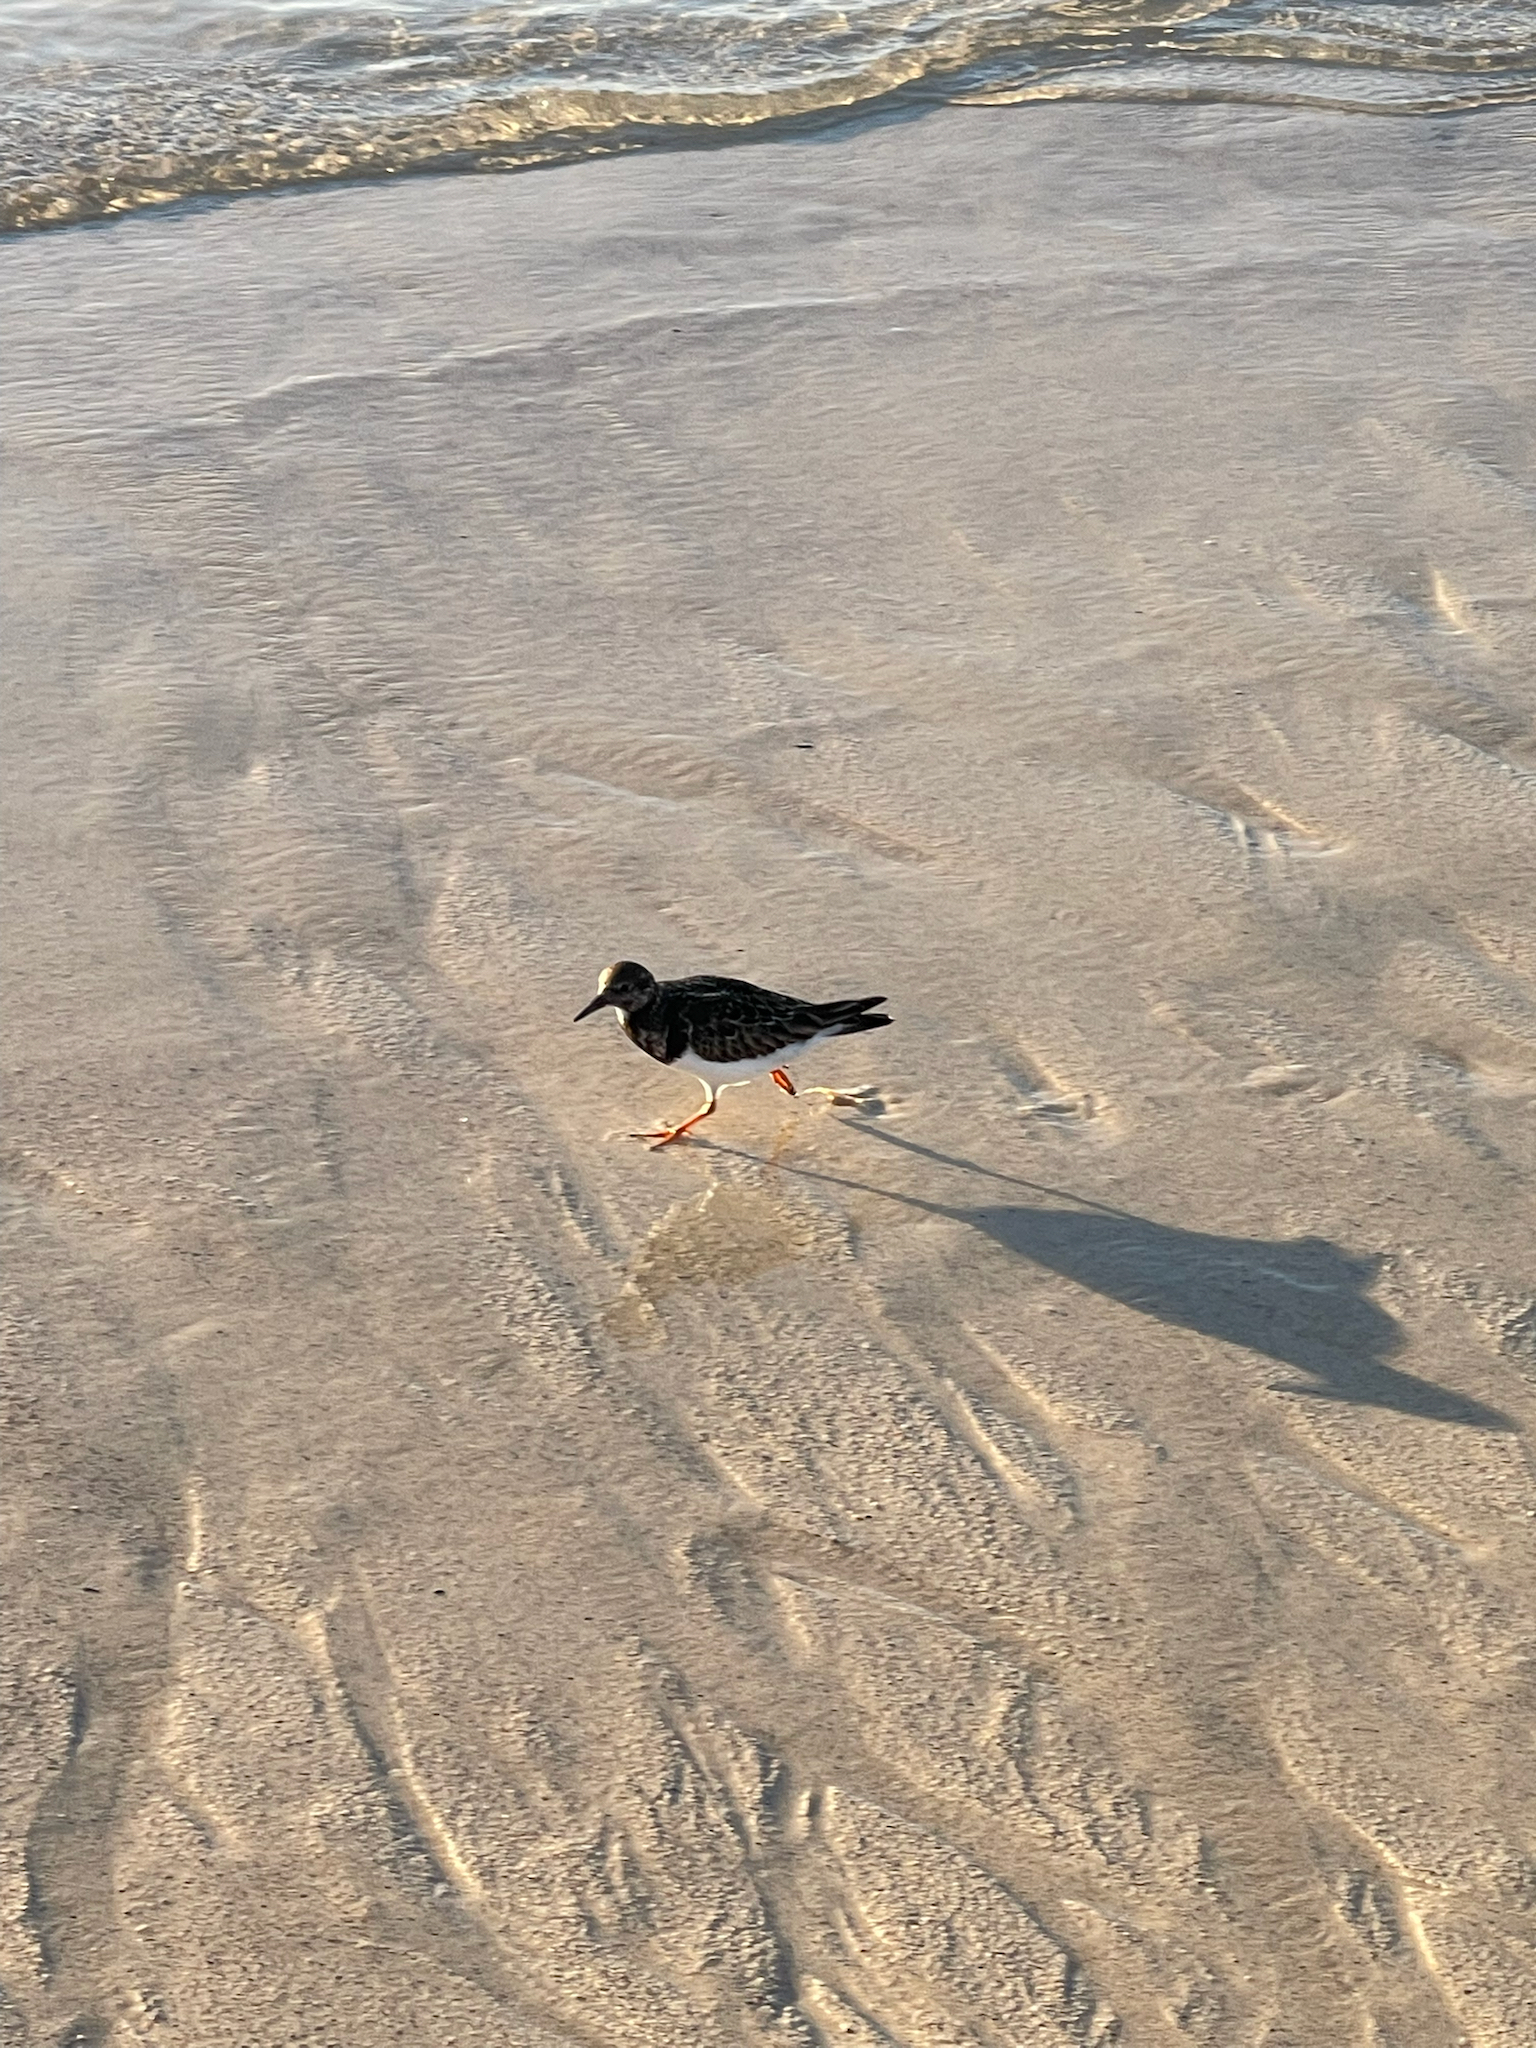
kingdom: Animalia
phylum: Chordata
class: Aves
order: Charadriiformes
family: Scolopacidae
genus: Arenaria
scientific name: Arenaria interpres
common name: Ruddy turnstone
